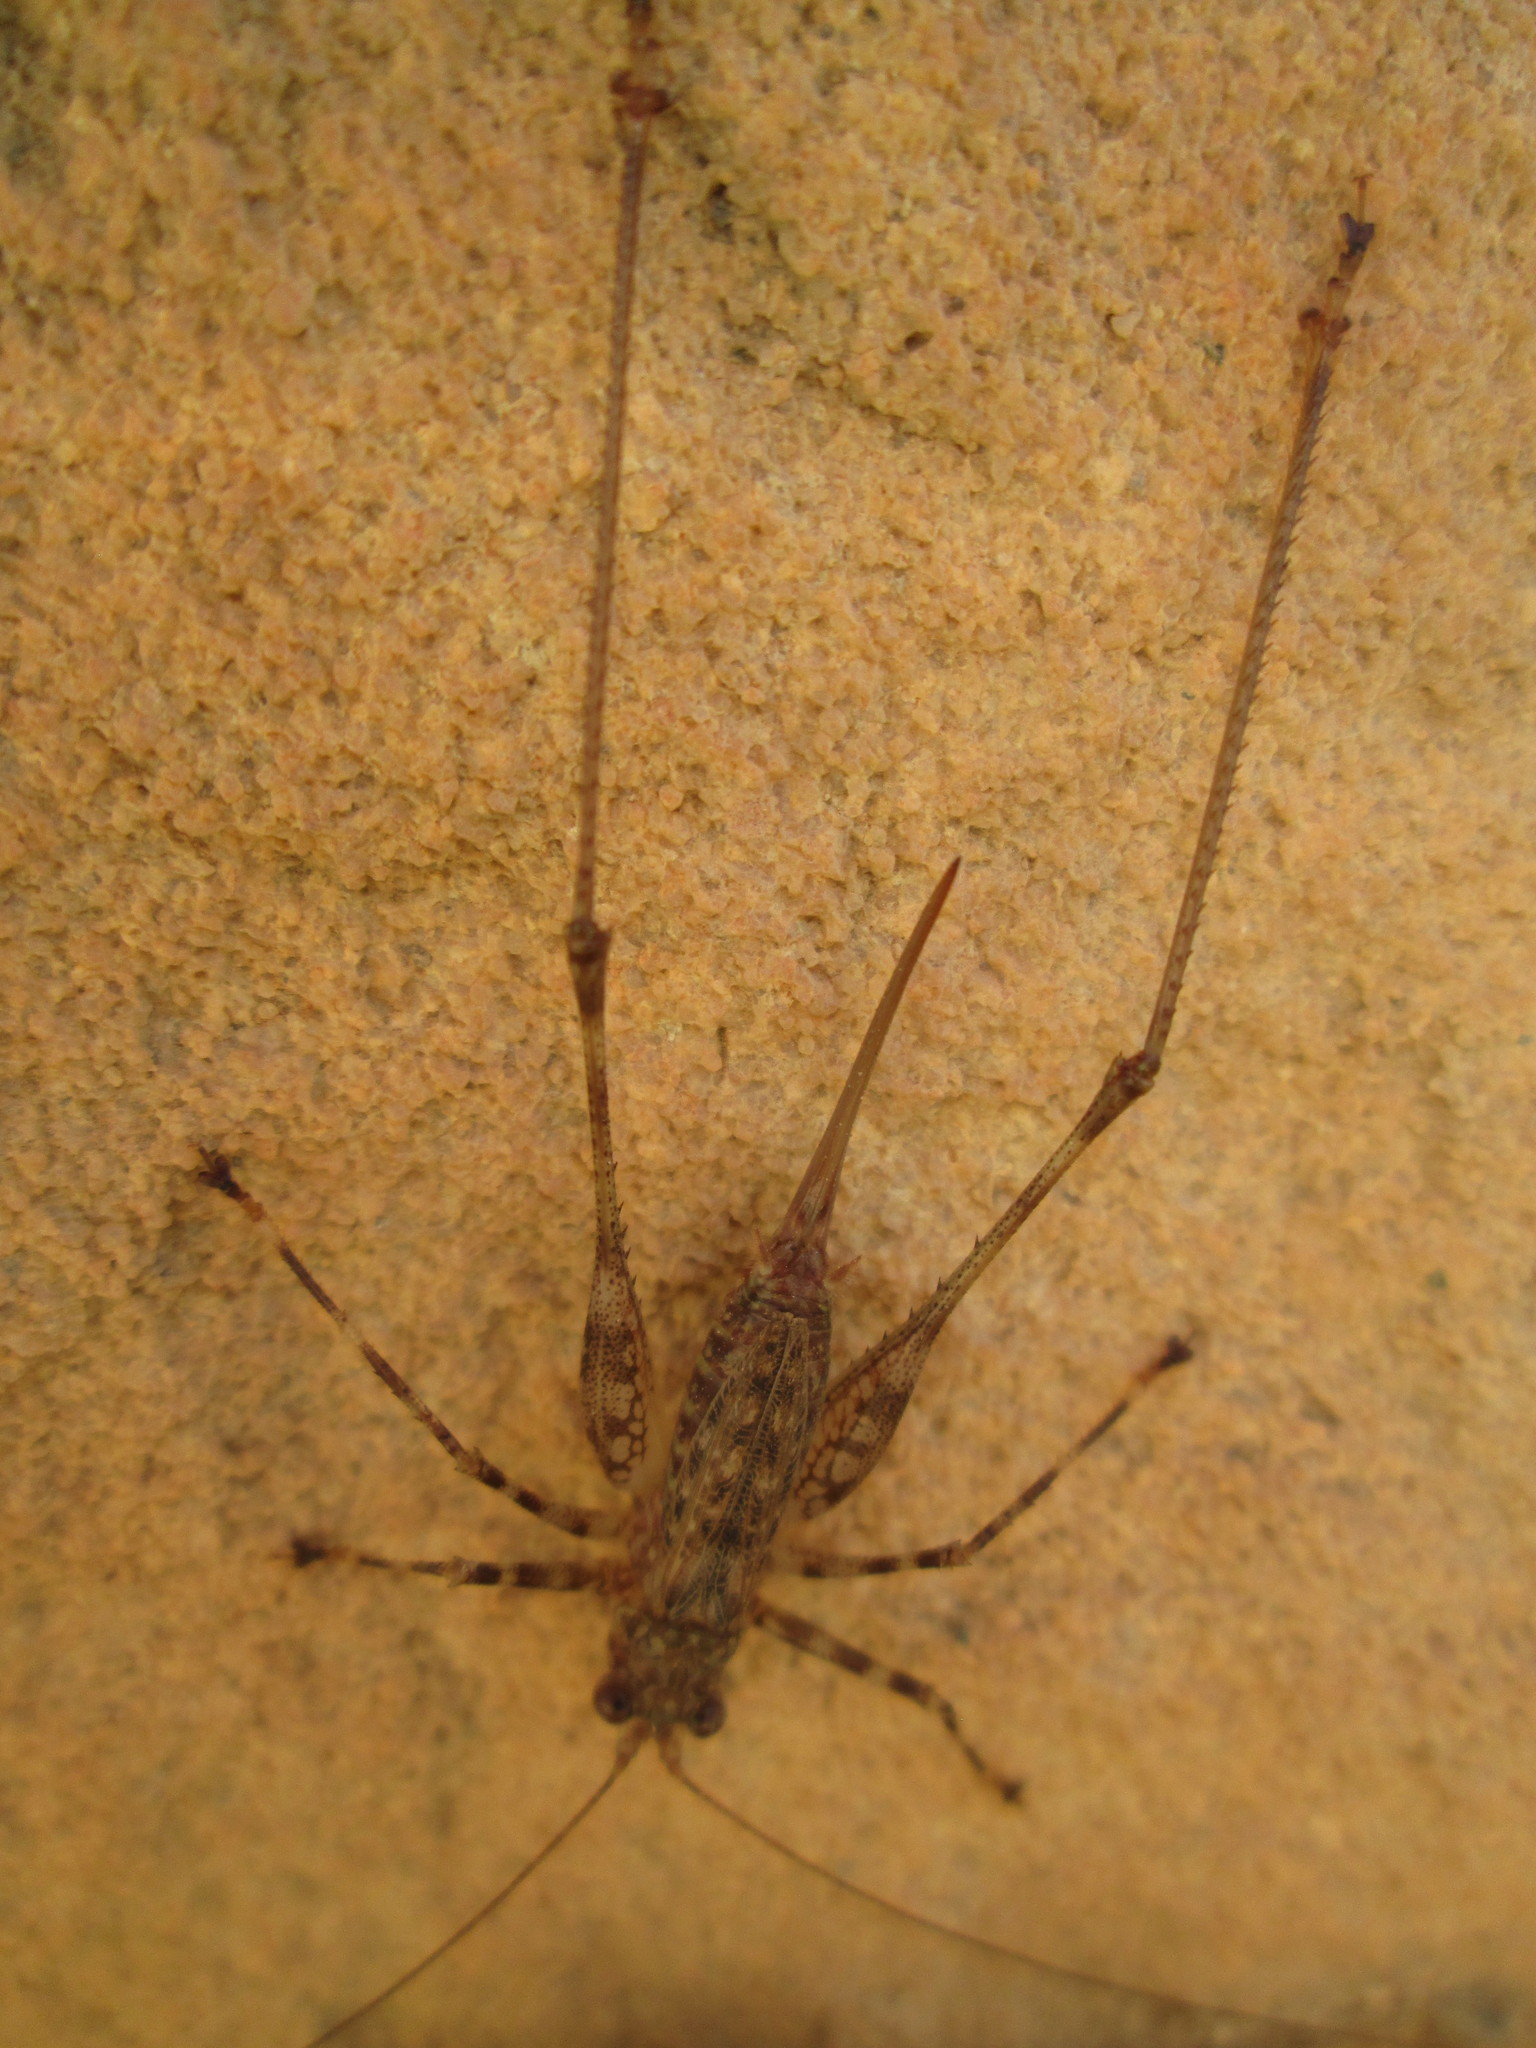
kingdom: Animalia
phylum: Arthropoda
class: Insecta
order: Orthoptera
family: Tettigoniidae
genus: Griffiniana
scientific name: Griffiniana duplessisae
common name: Duplessis' agile katydid
